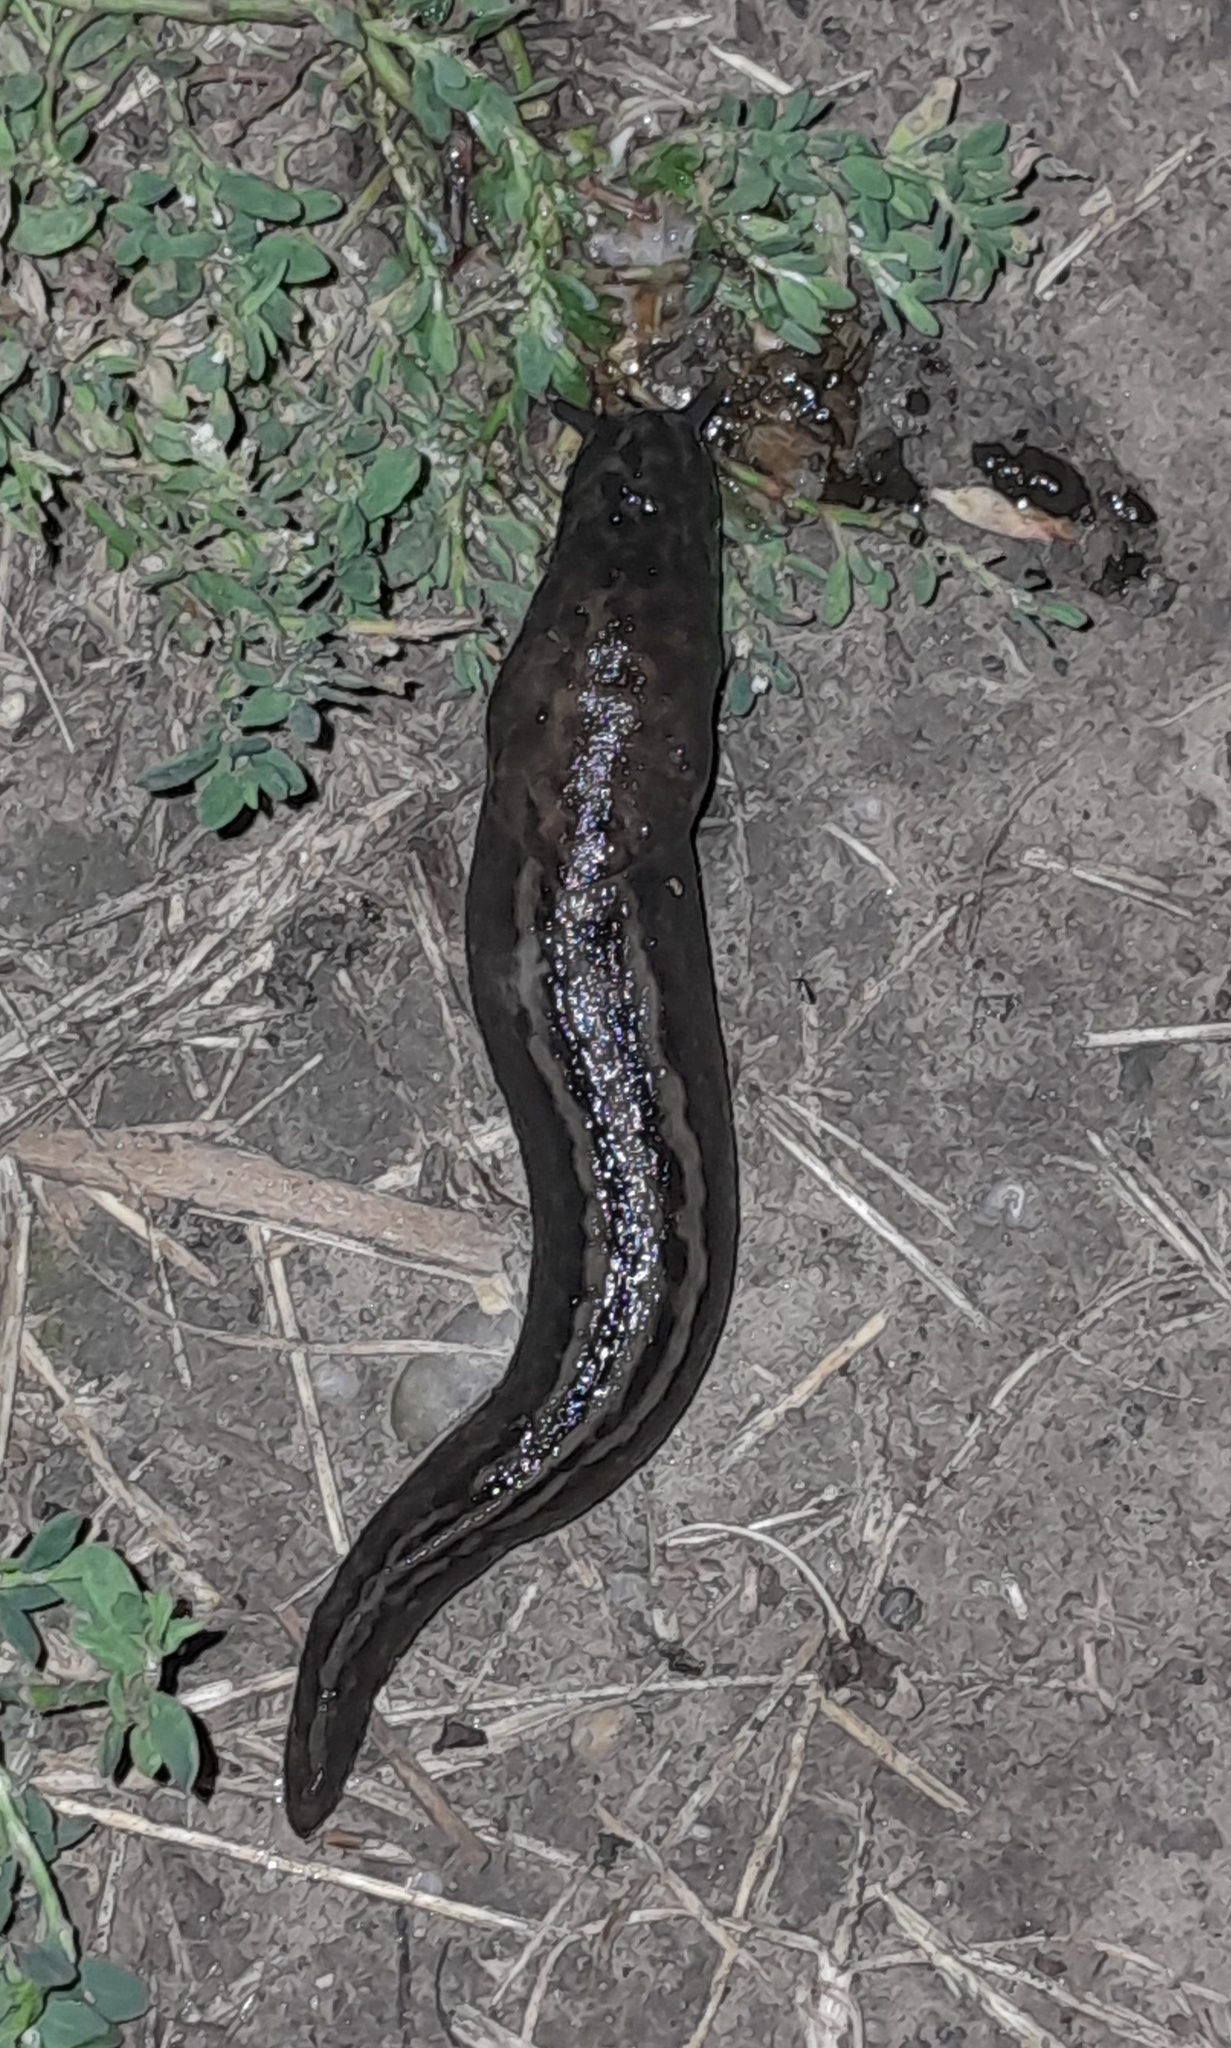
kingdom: Animalia
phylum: Mollusca
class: Gastropoda
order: Stylommatophora
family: Limacidae
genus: Limax
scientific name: Limax maximus
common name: Great grey slug
